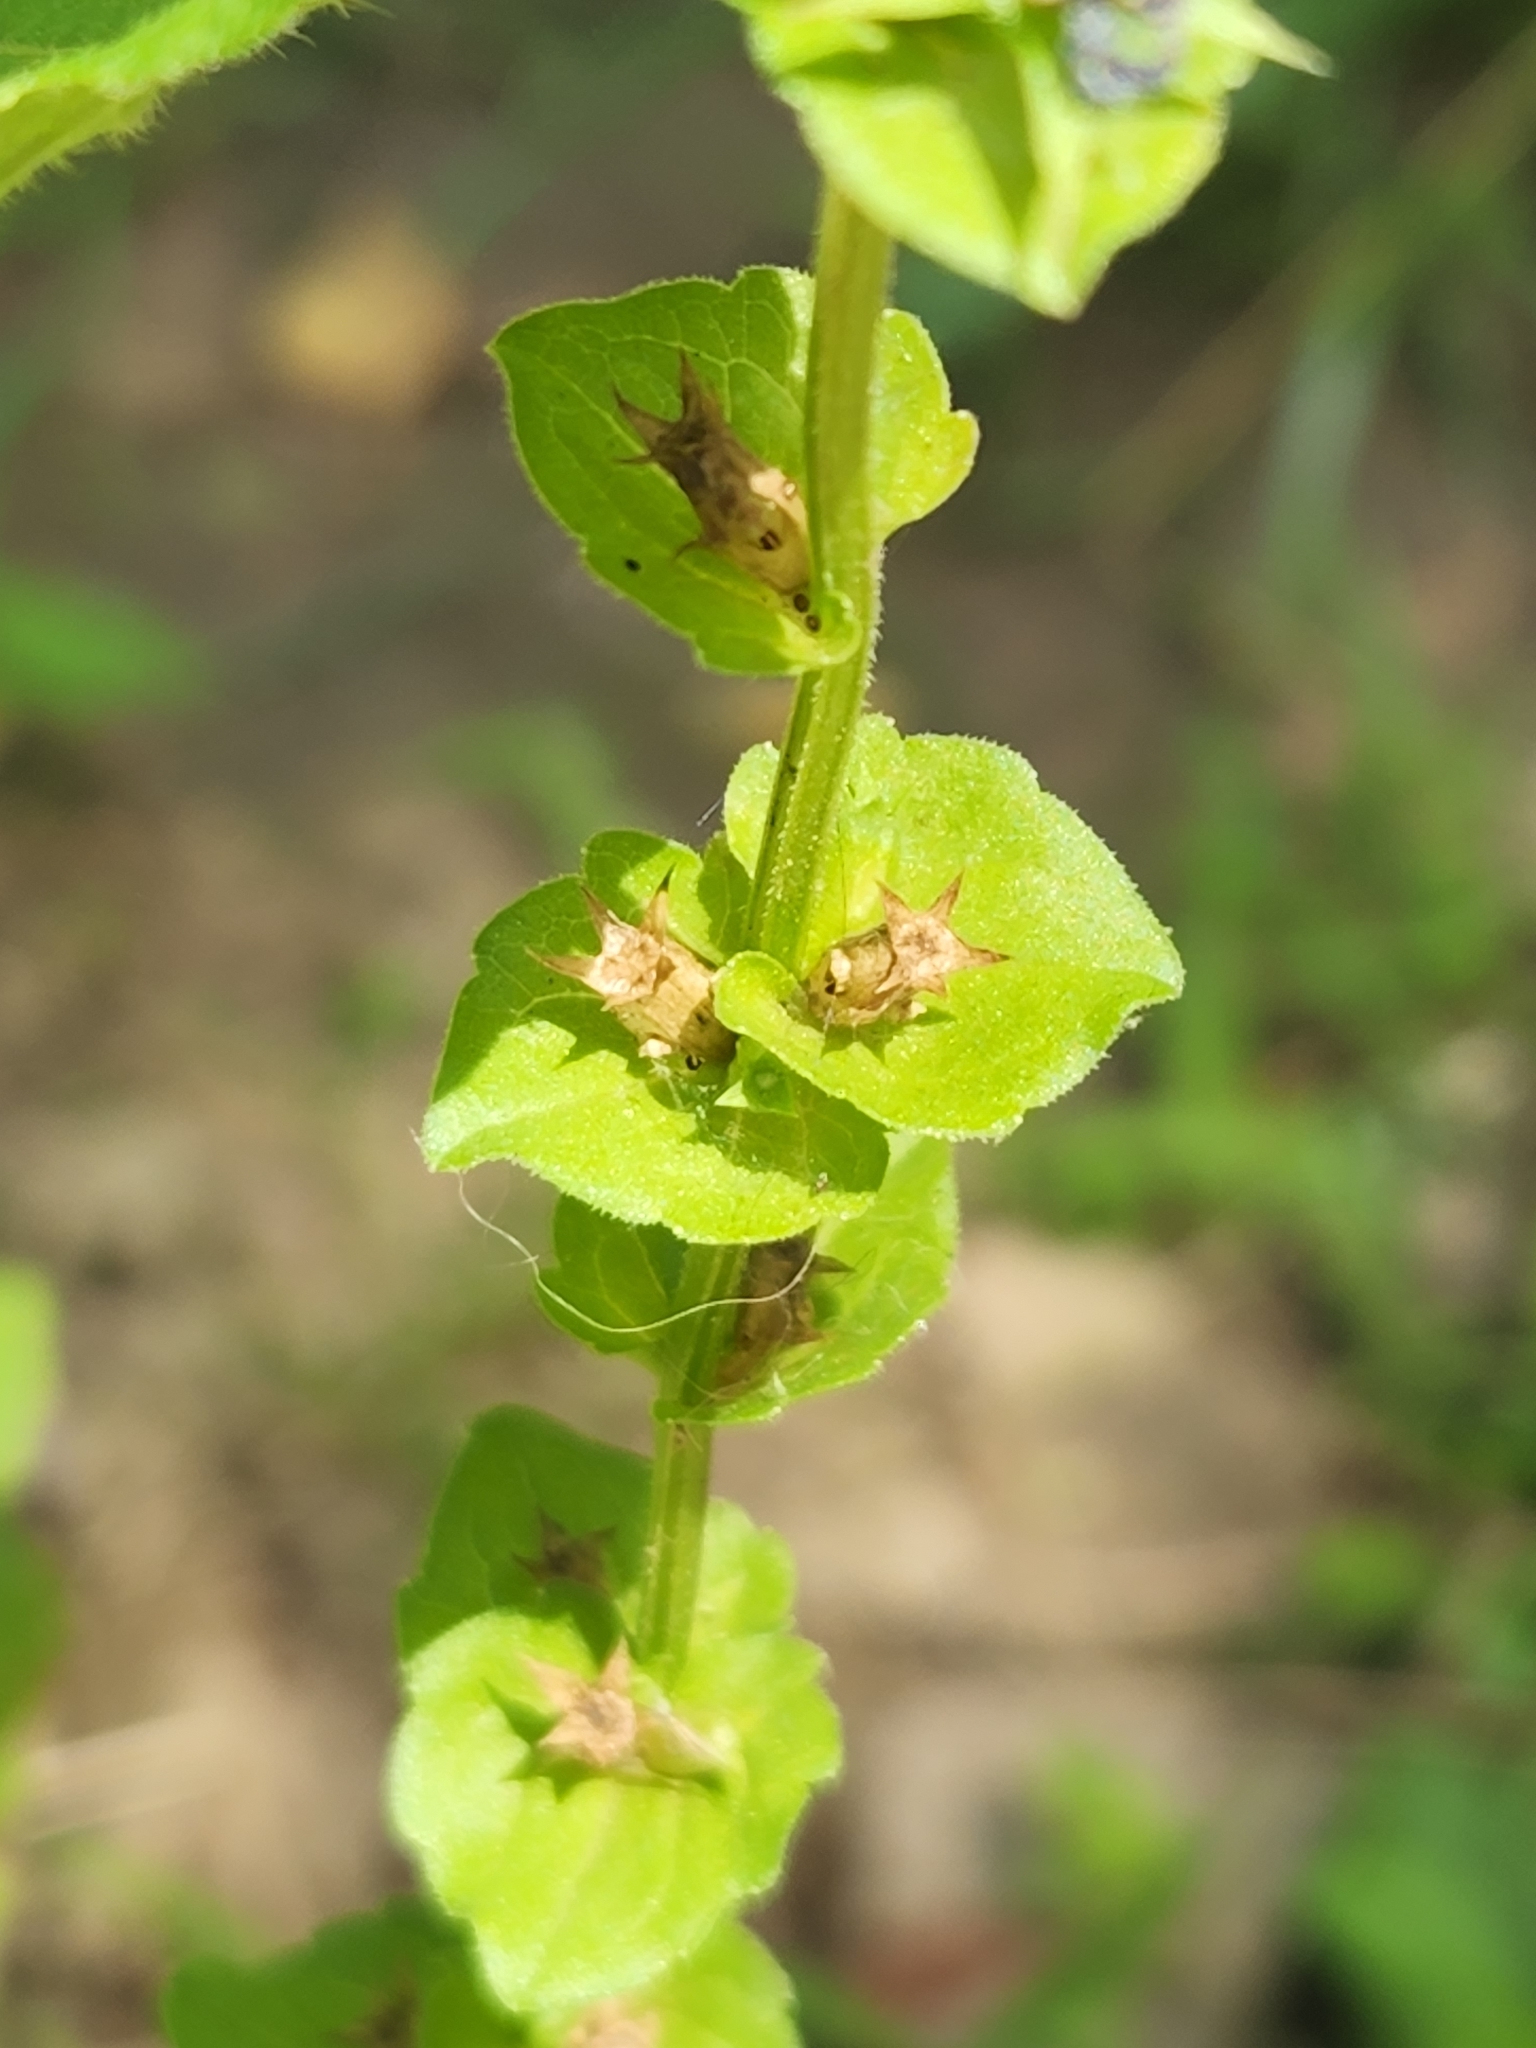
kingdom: Plantae
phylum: Tracheophyta
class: Magnoliopsida
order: Asterales
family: Campanulaceae
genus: Triodanis
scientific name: Triodanis perfoliata
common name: Clasping venus' looking-glass
